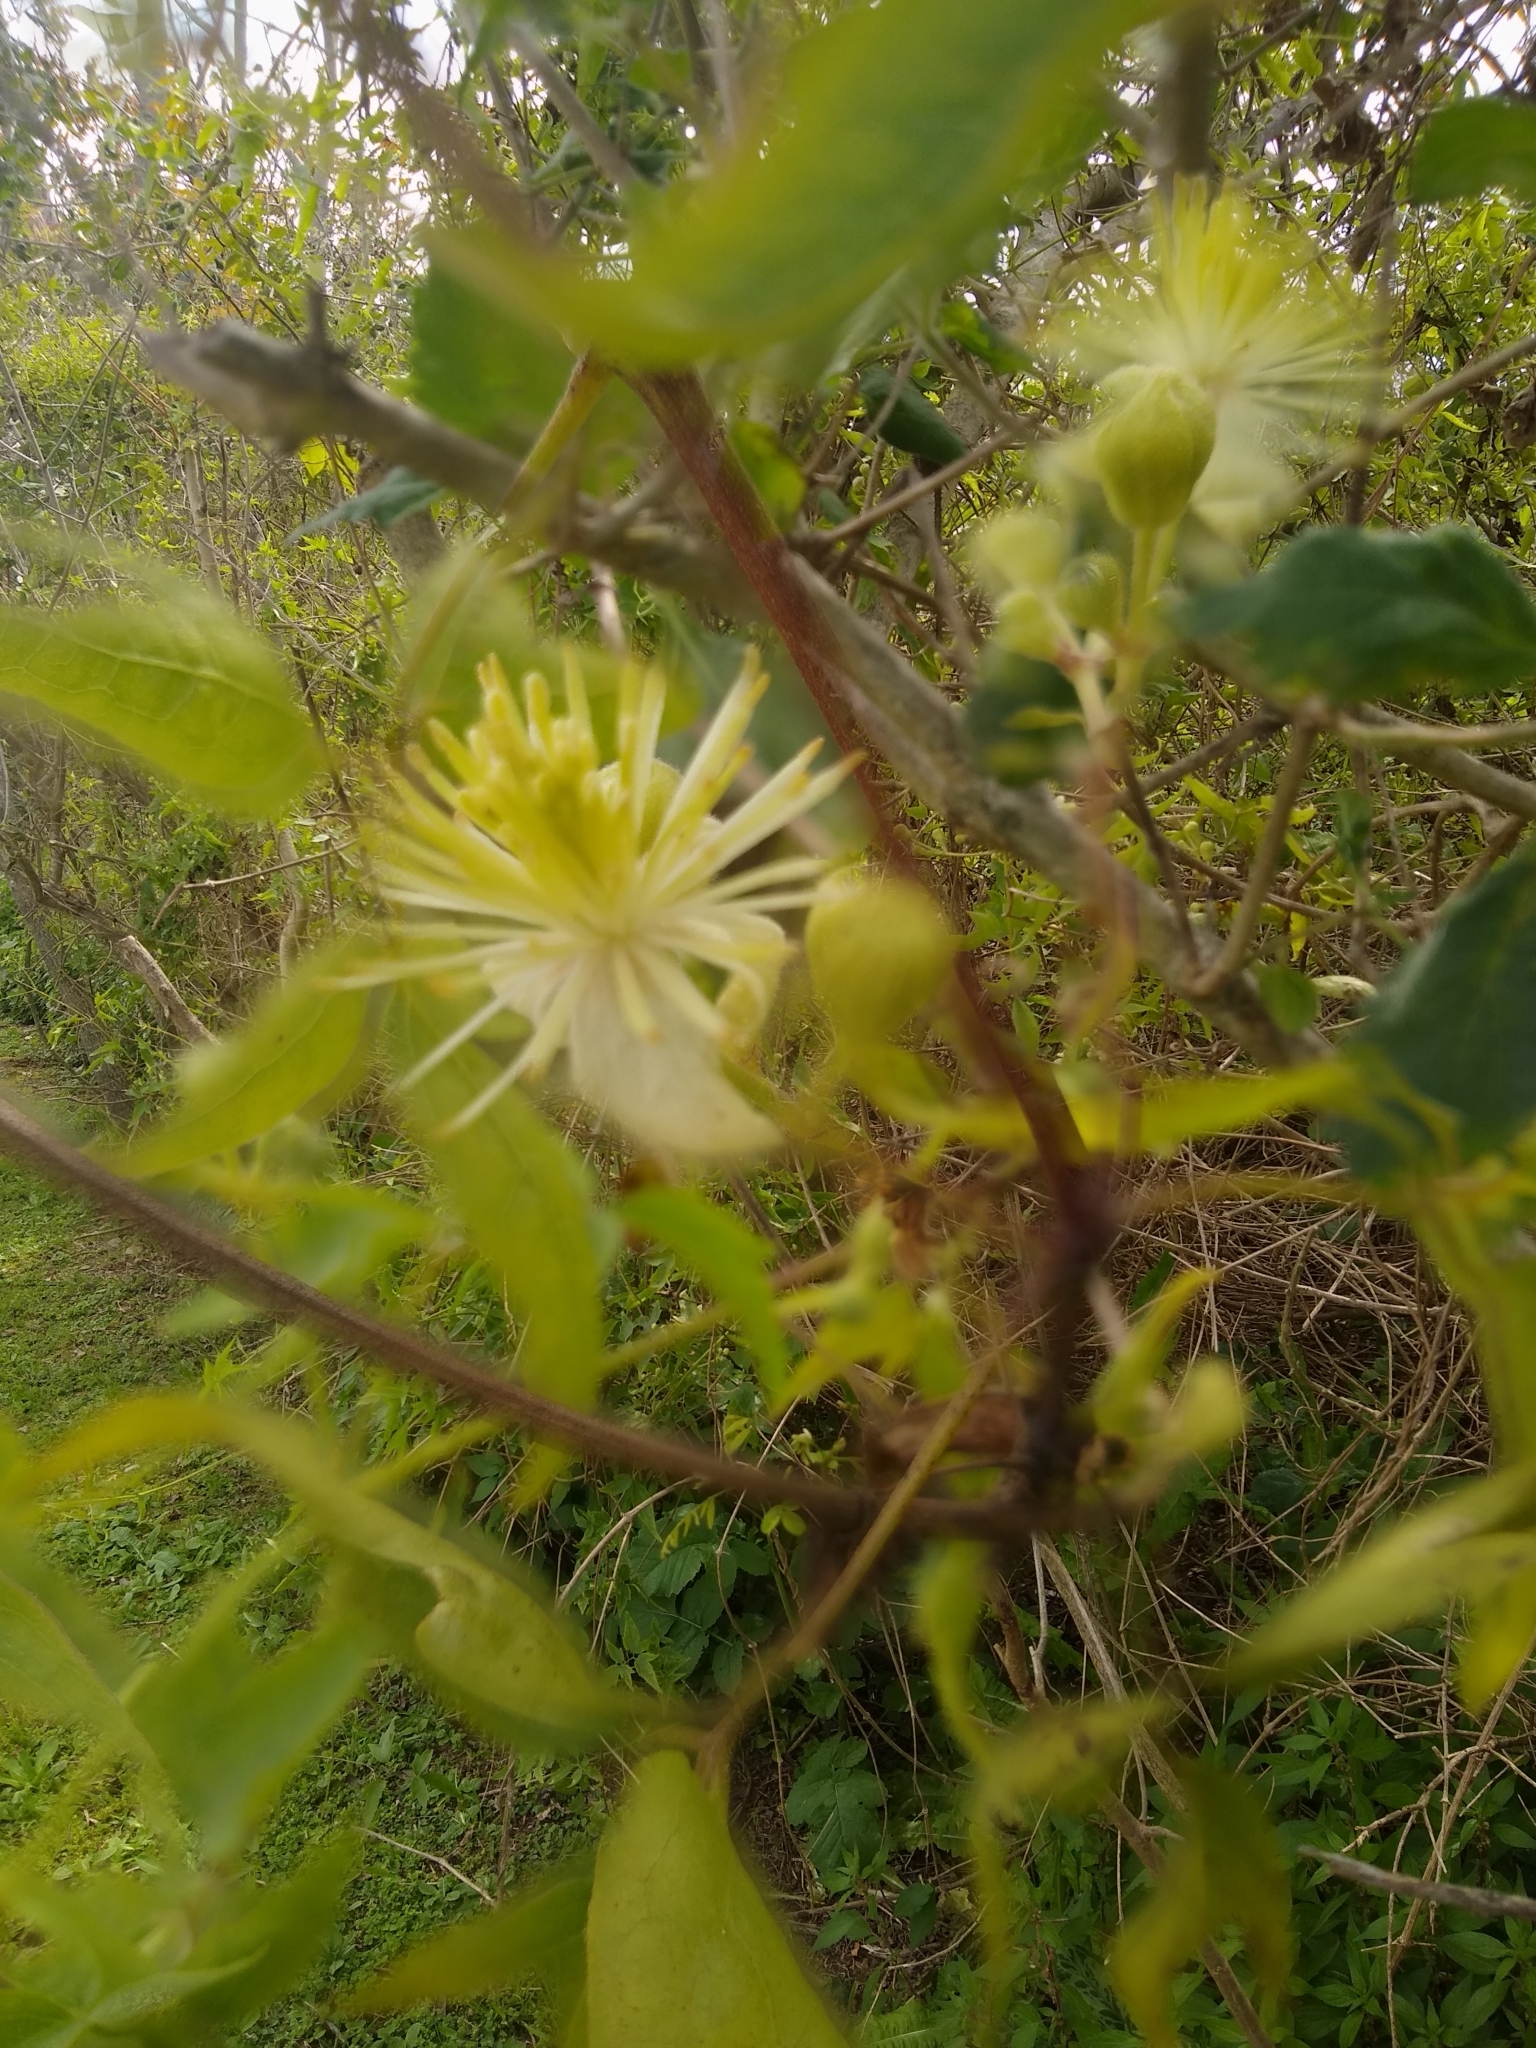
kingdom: Plantae
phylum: Tracheophyta
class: Magnoliopsida
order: Ranunculales
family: Ranunculaceae
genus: Clematis
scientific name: Clematis montevidensis
